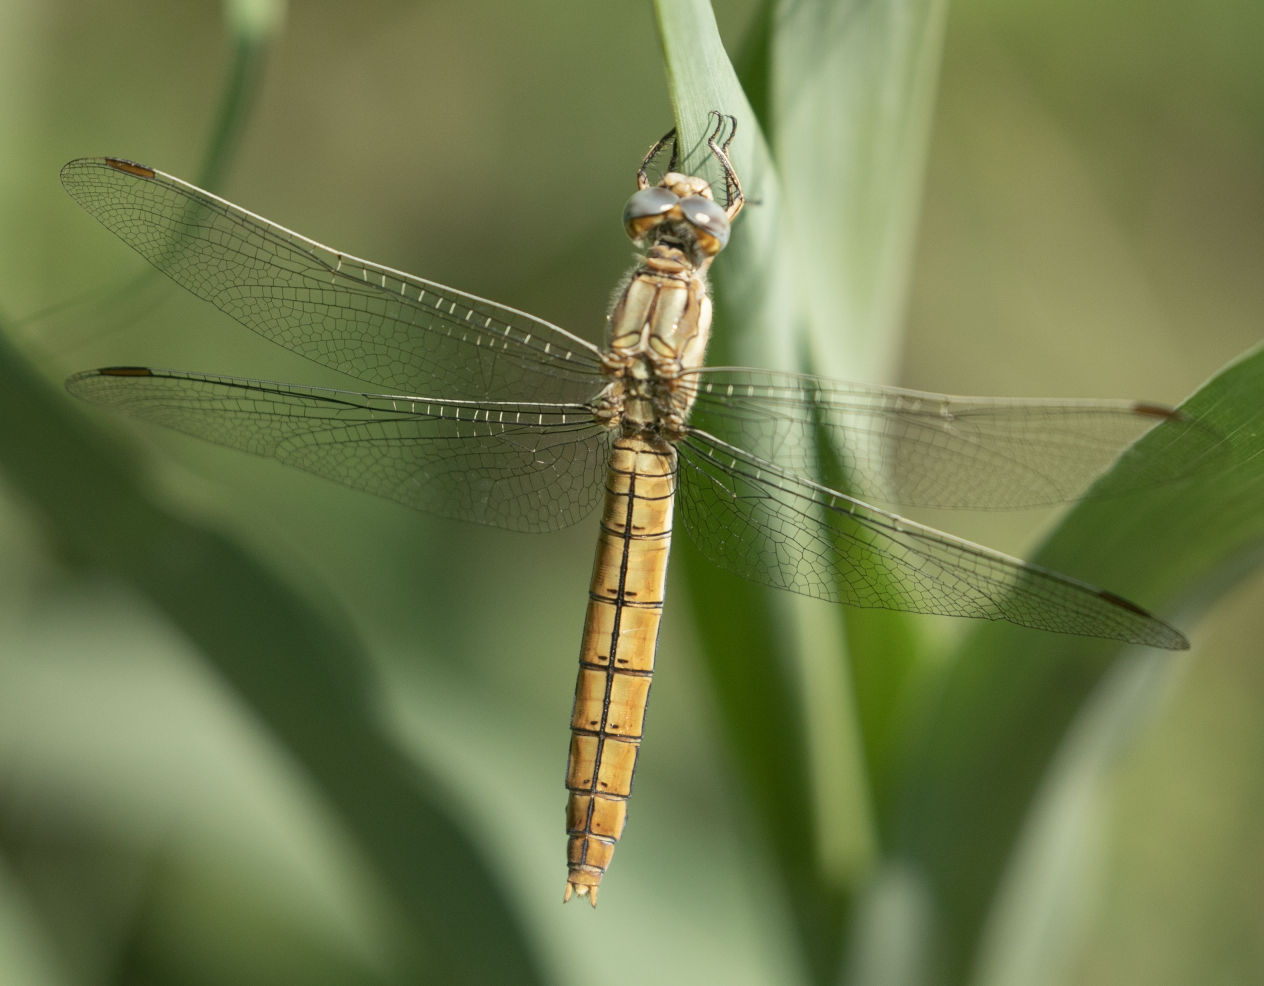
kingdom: Animalia
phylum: Arthropoda
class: Insecta
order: Odonata
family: Libellulidae
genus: Orthetrum
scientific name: Orthetrum brunneum
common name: Southern skimmer
